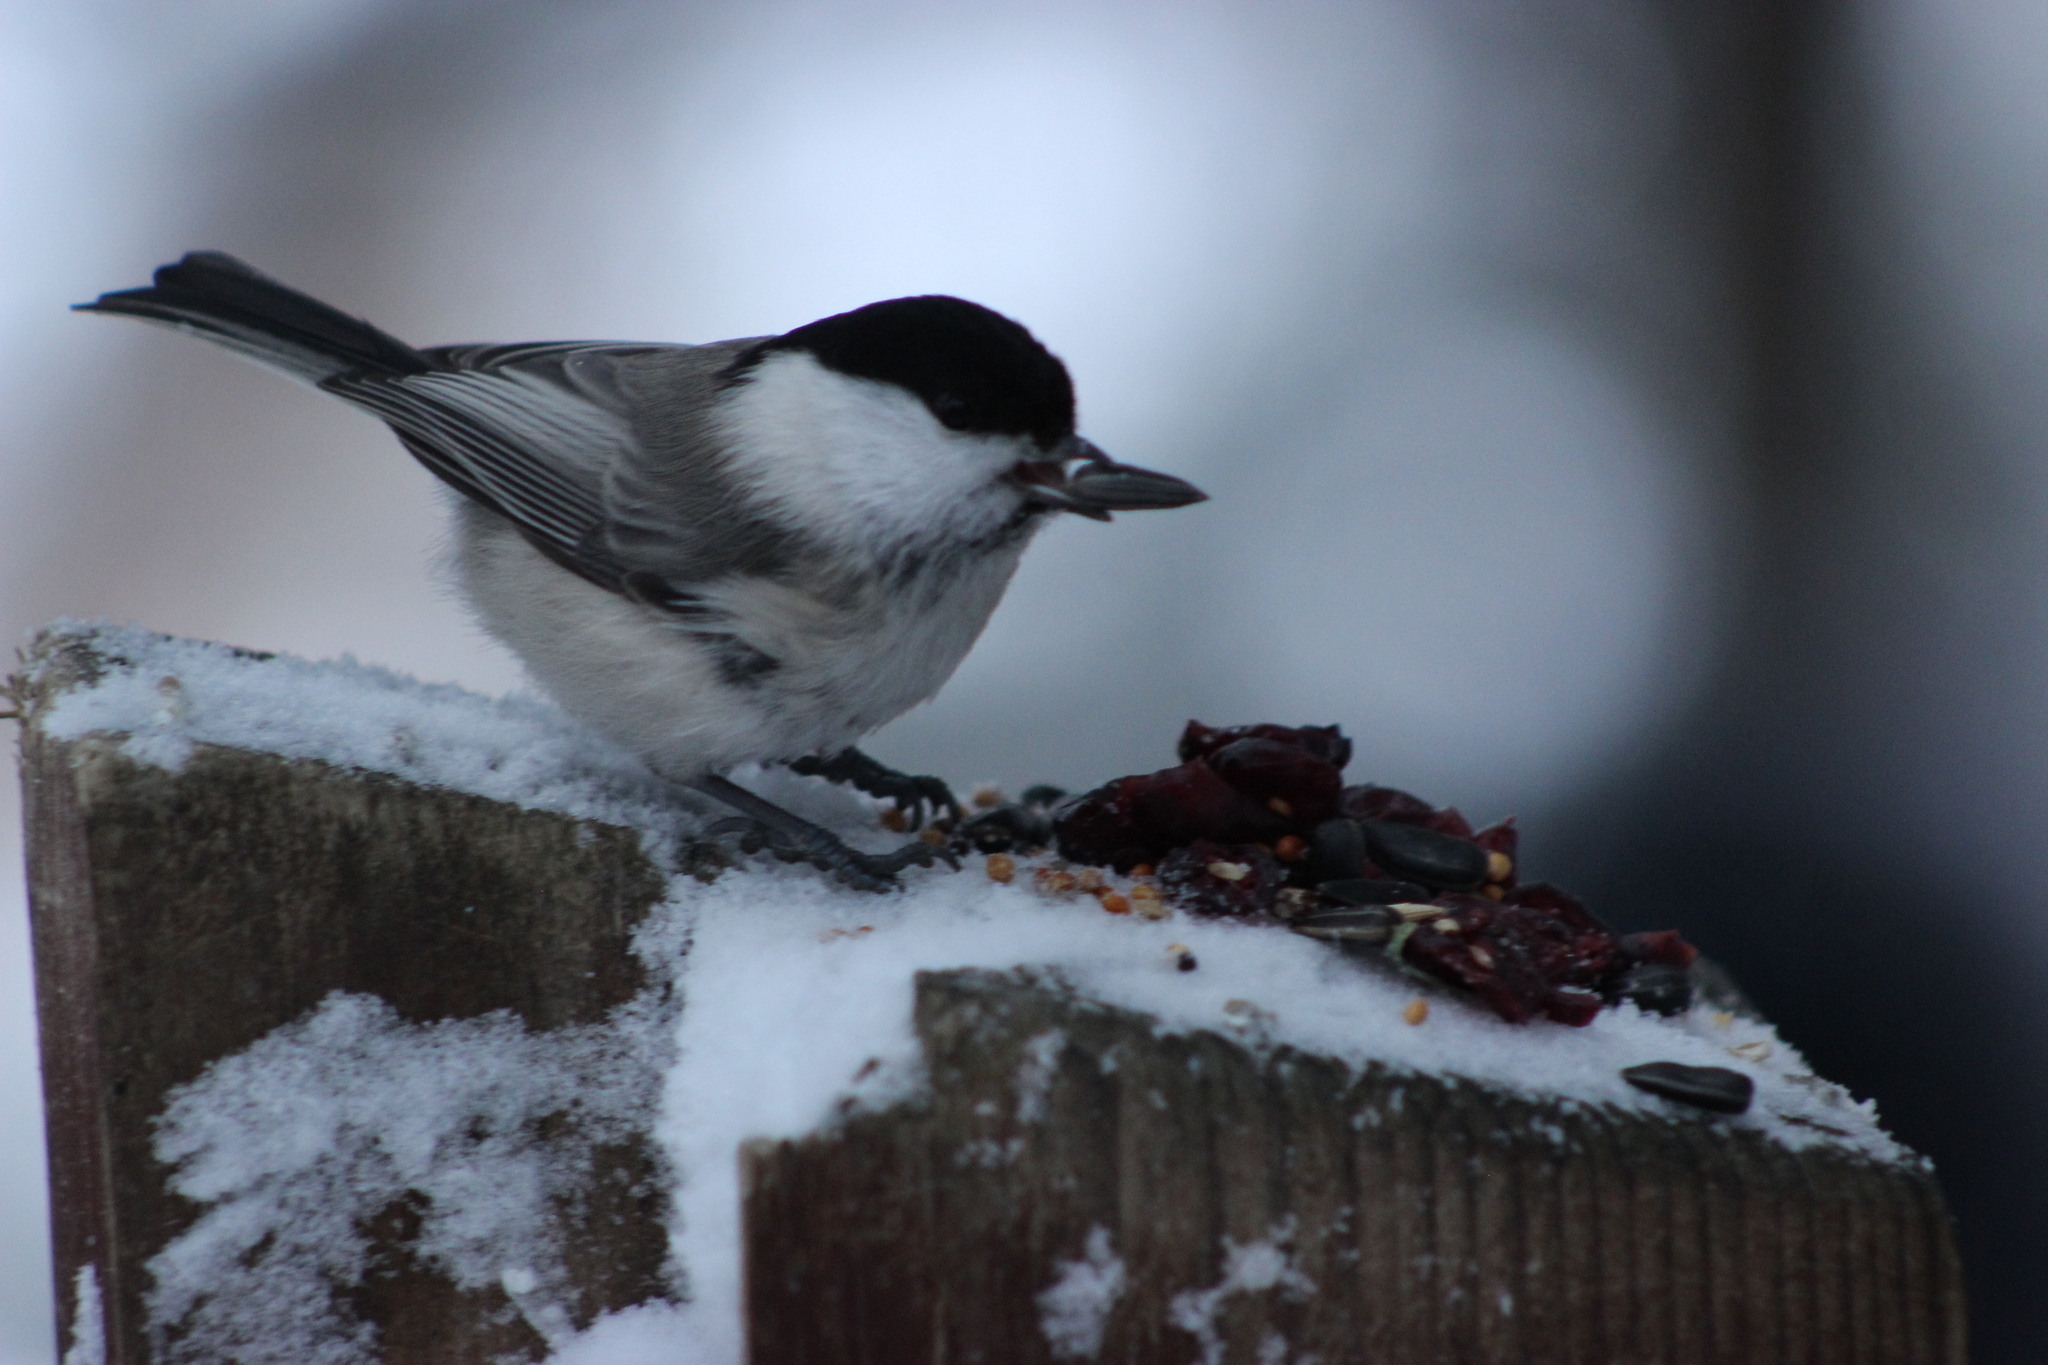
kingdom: Animalia
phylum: Chordata
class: Aves
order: Passeriformes
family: Paridae
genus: Poecile
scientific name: Poecile montanus
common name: Willow tit
